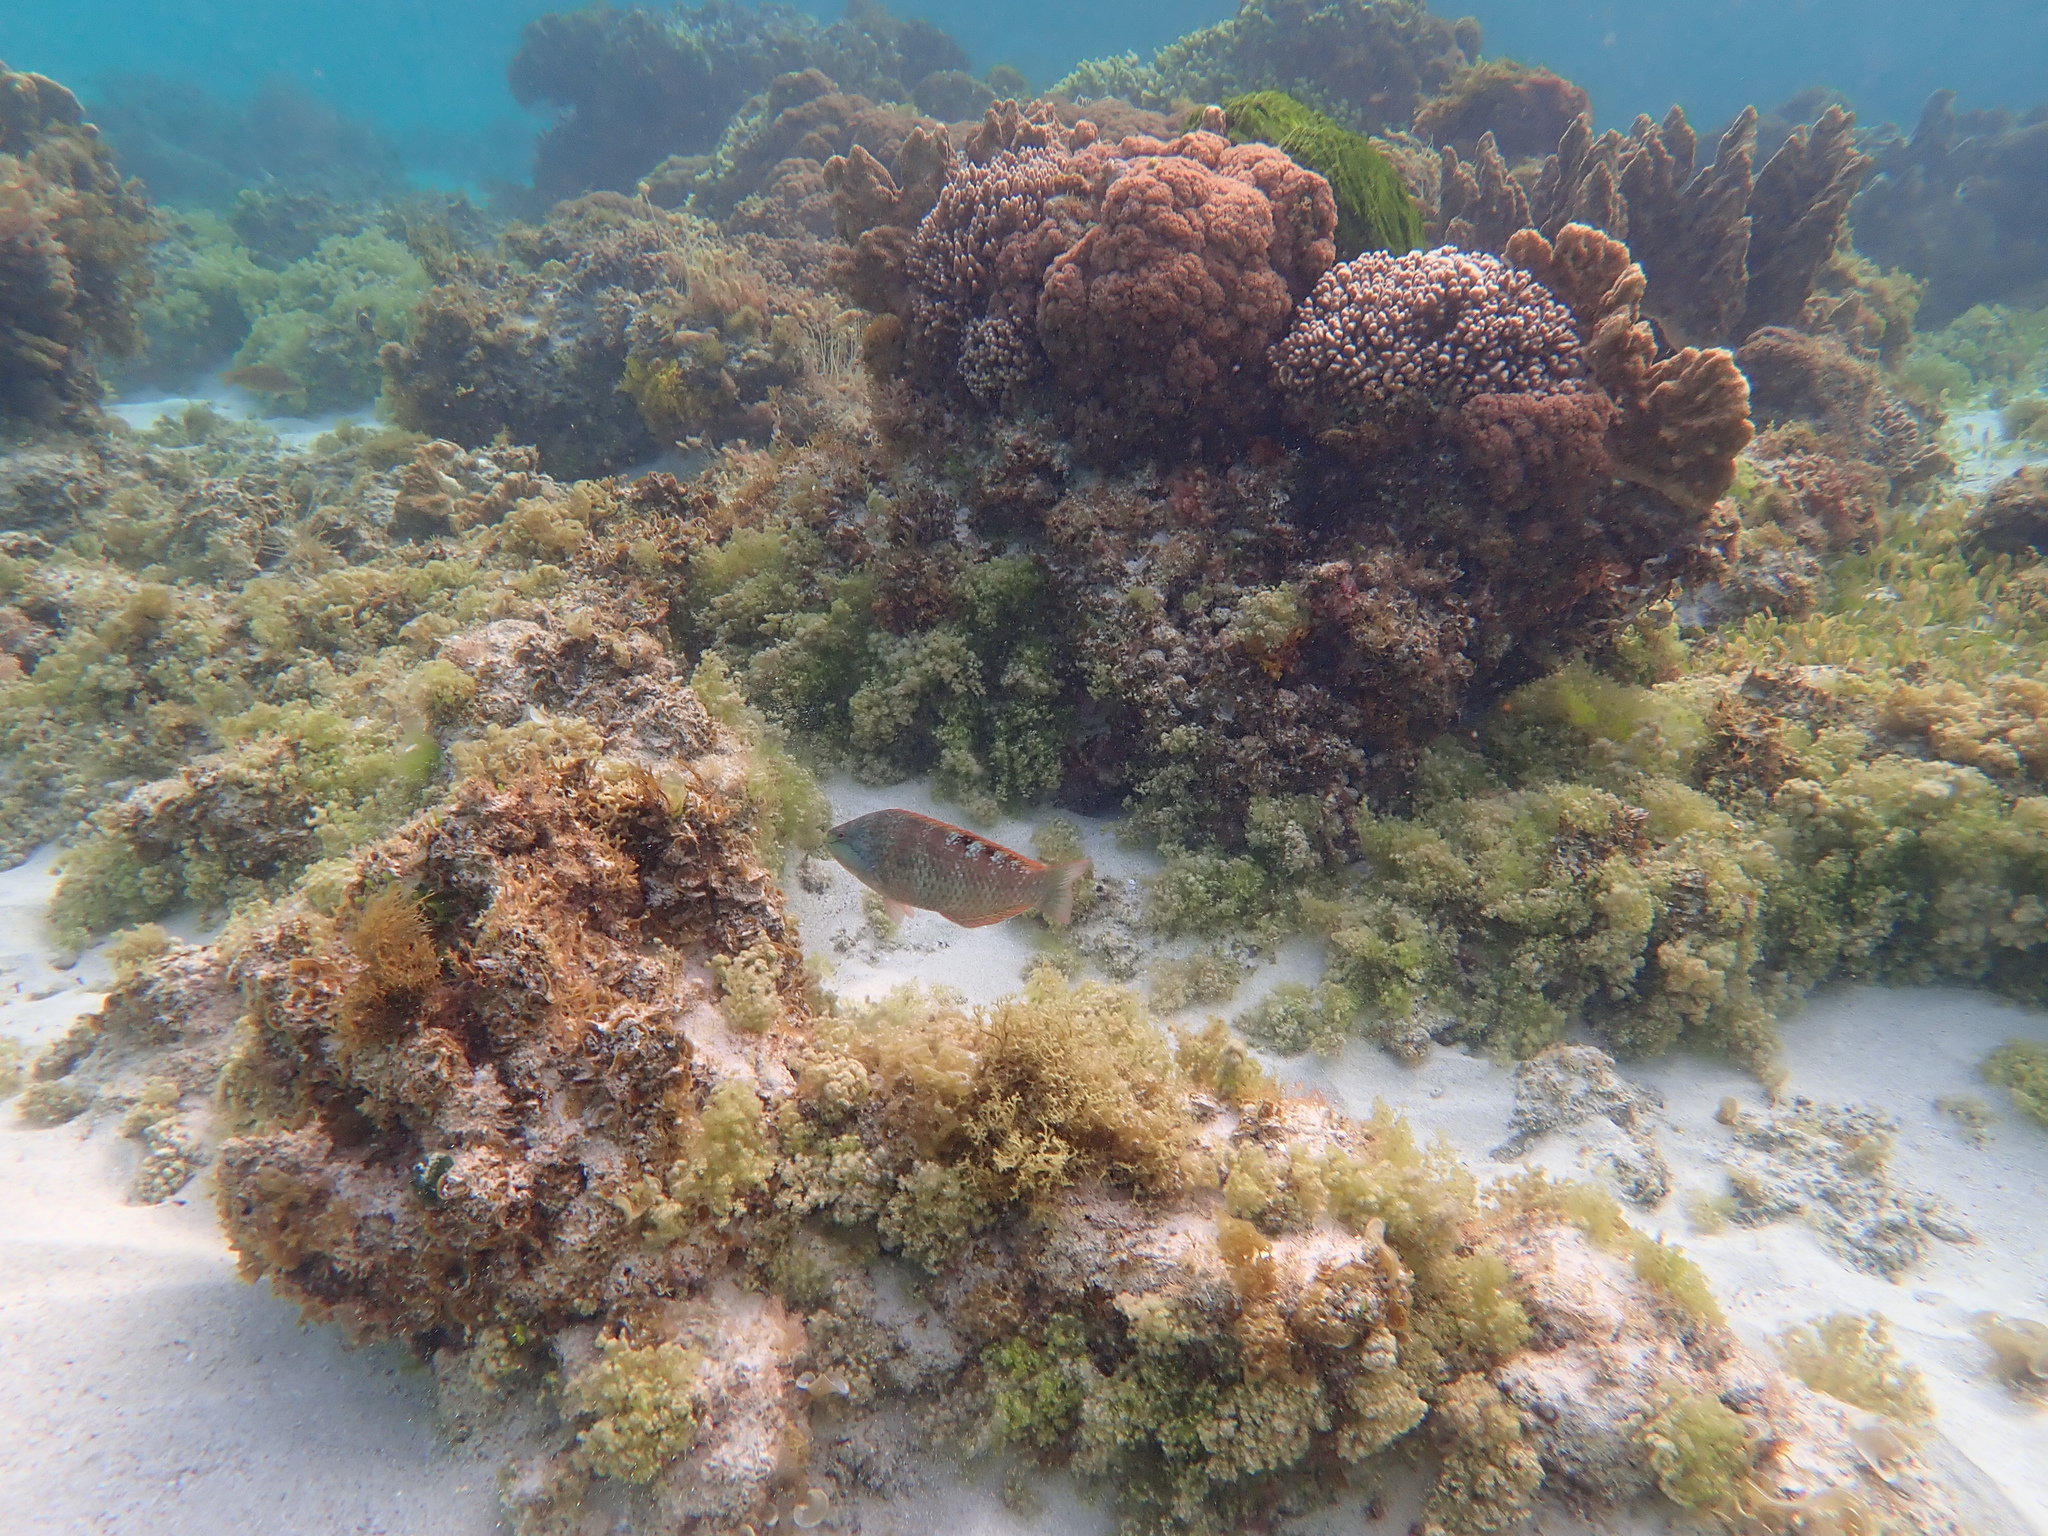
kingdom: Animalia
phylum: Chordata
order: Perciformes
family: Labridae
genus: Pseudolabrus
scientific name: Pseudolabrus luculentus
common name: Luculentus wrasse
